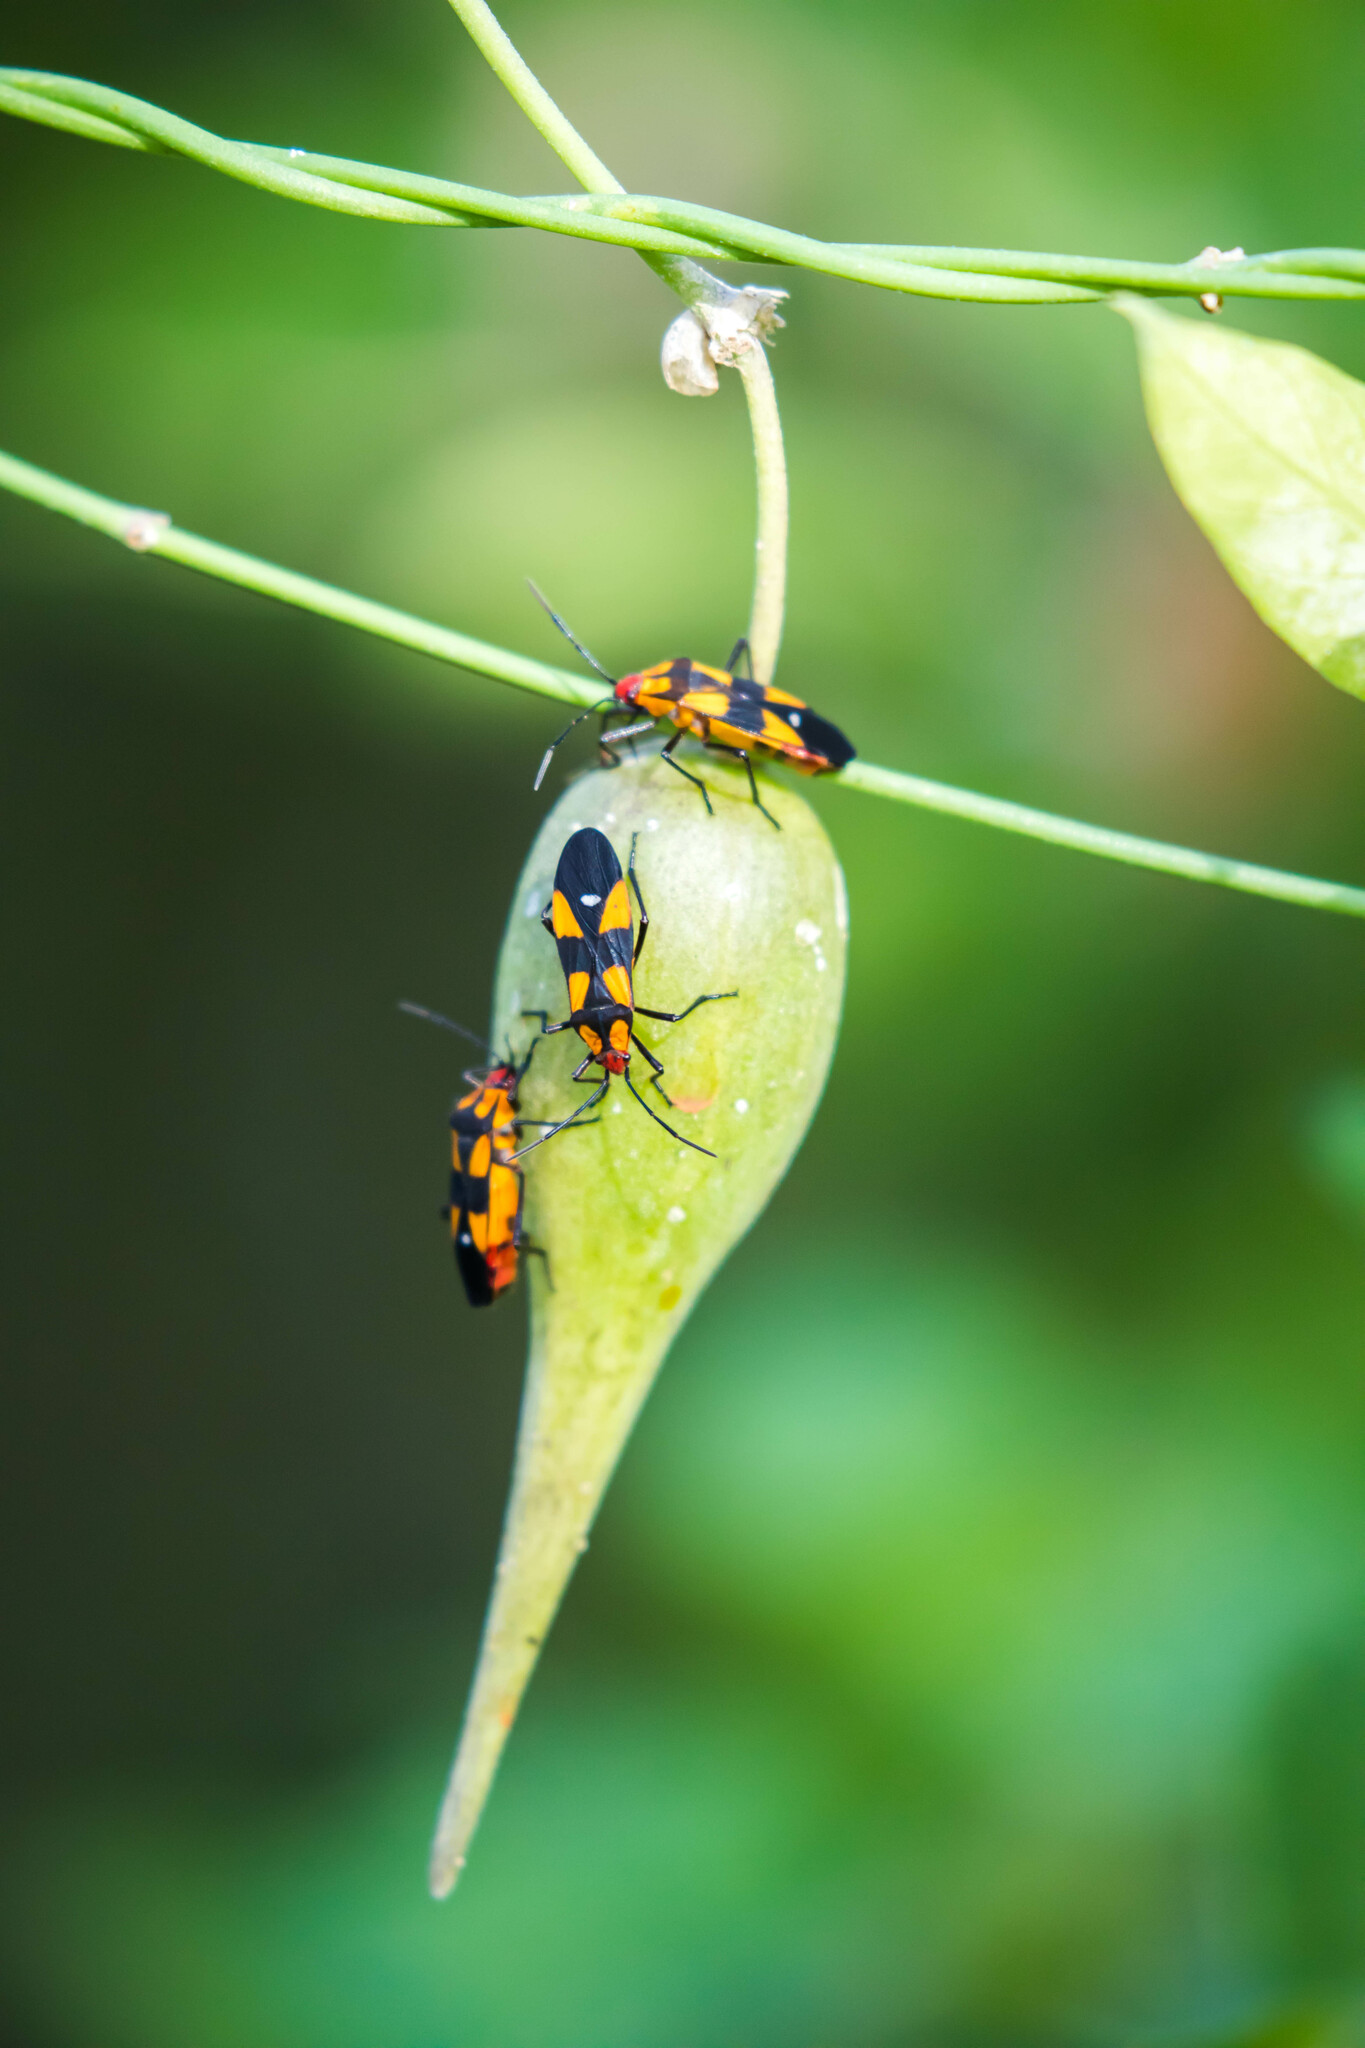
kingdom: Animalia
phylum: Arthropoda
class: Insecta
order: Hemiptera
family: Lygaeidae
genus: Oncopeltus
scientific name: Oncopeltus sexmaculatus
